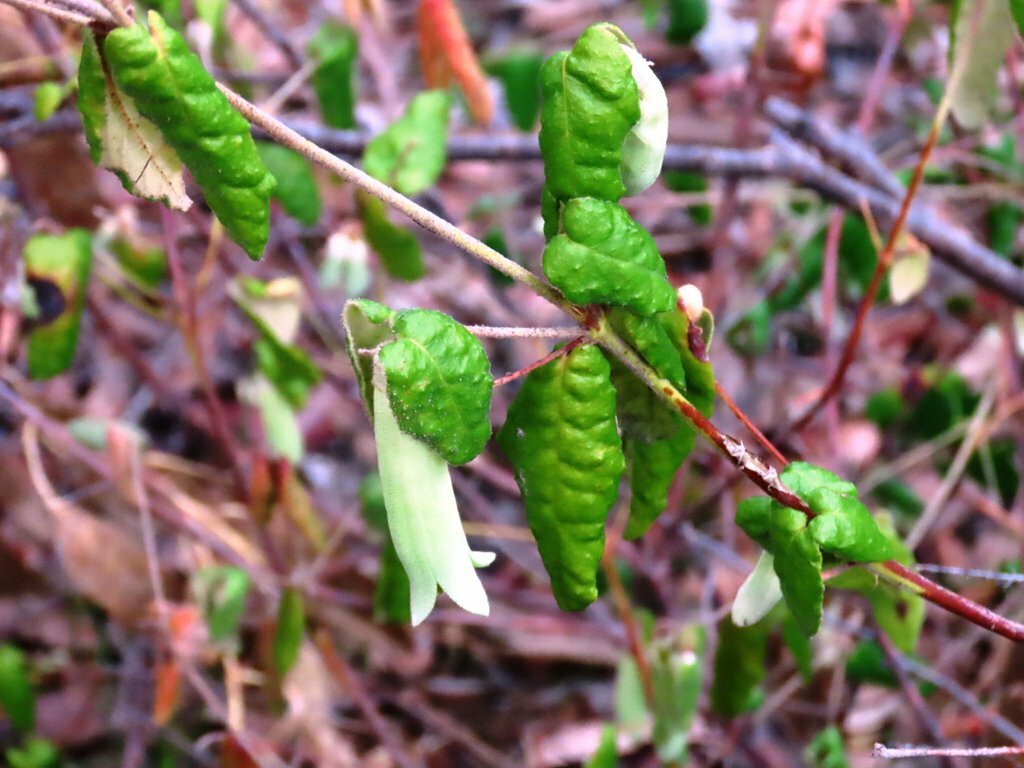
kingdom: Plantae
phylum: Tracheophyta
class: Magnoliopsida
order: Sapindales
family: Rutaceae
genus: Correa
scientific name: Correa reflexa
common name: Common correa
